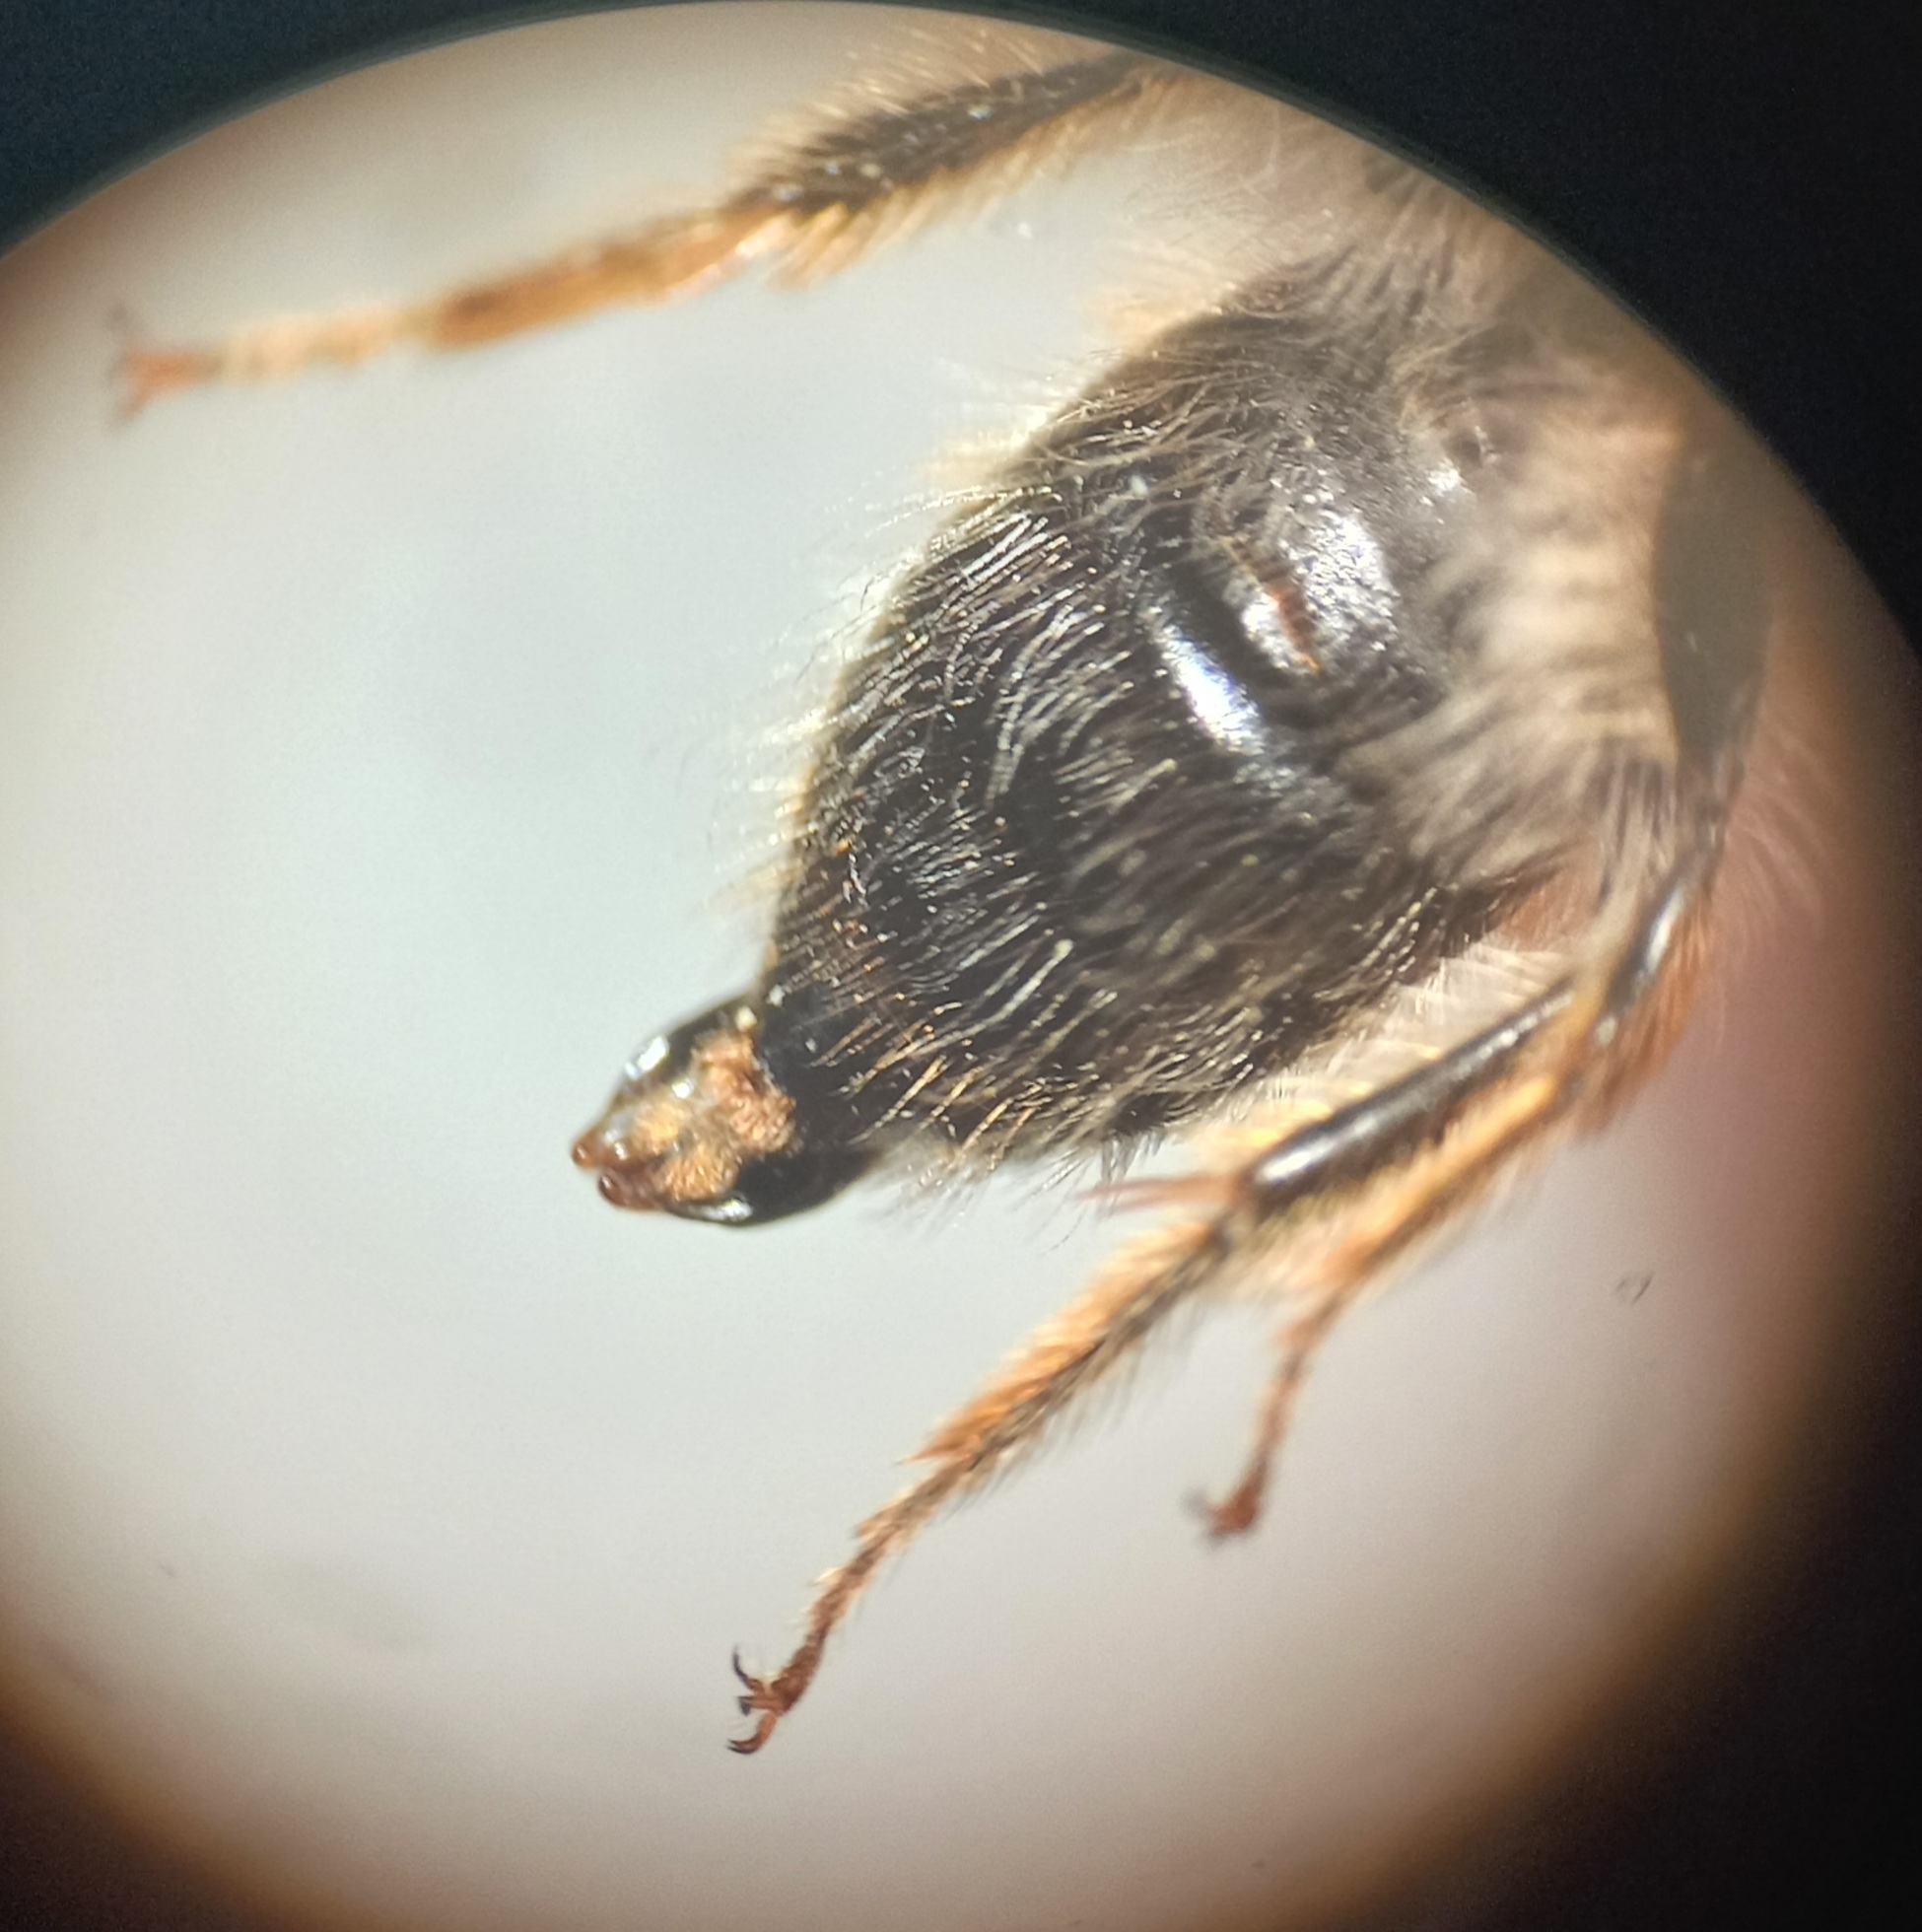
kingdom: Animalia
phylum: Arthropoda
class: Insecta
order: Hymenoptera
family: Andrenidae
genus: Andrena
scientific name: Andrena gravida
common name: White-bellied mining bee
